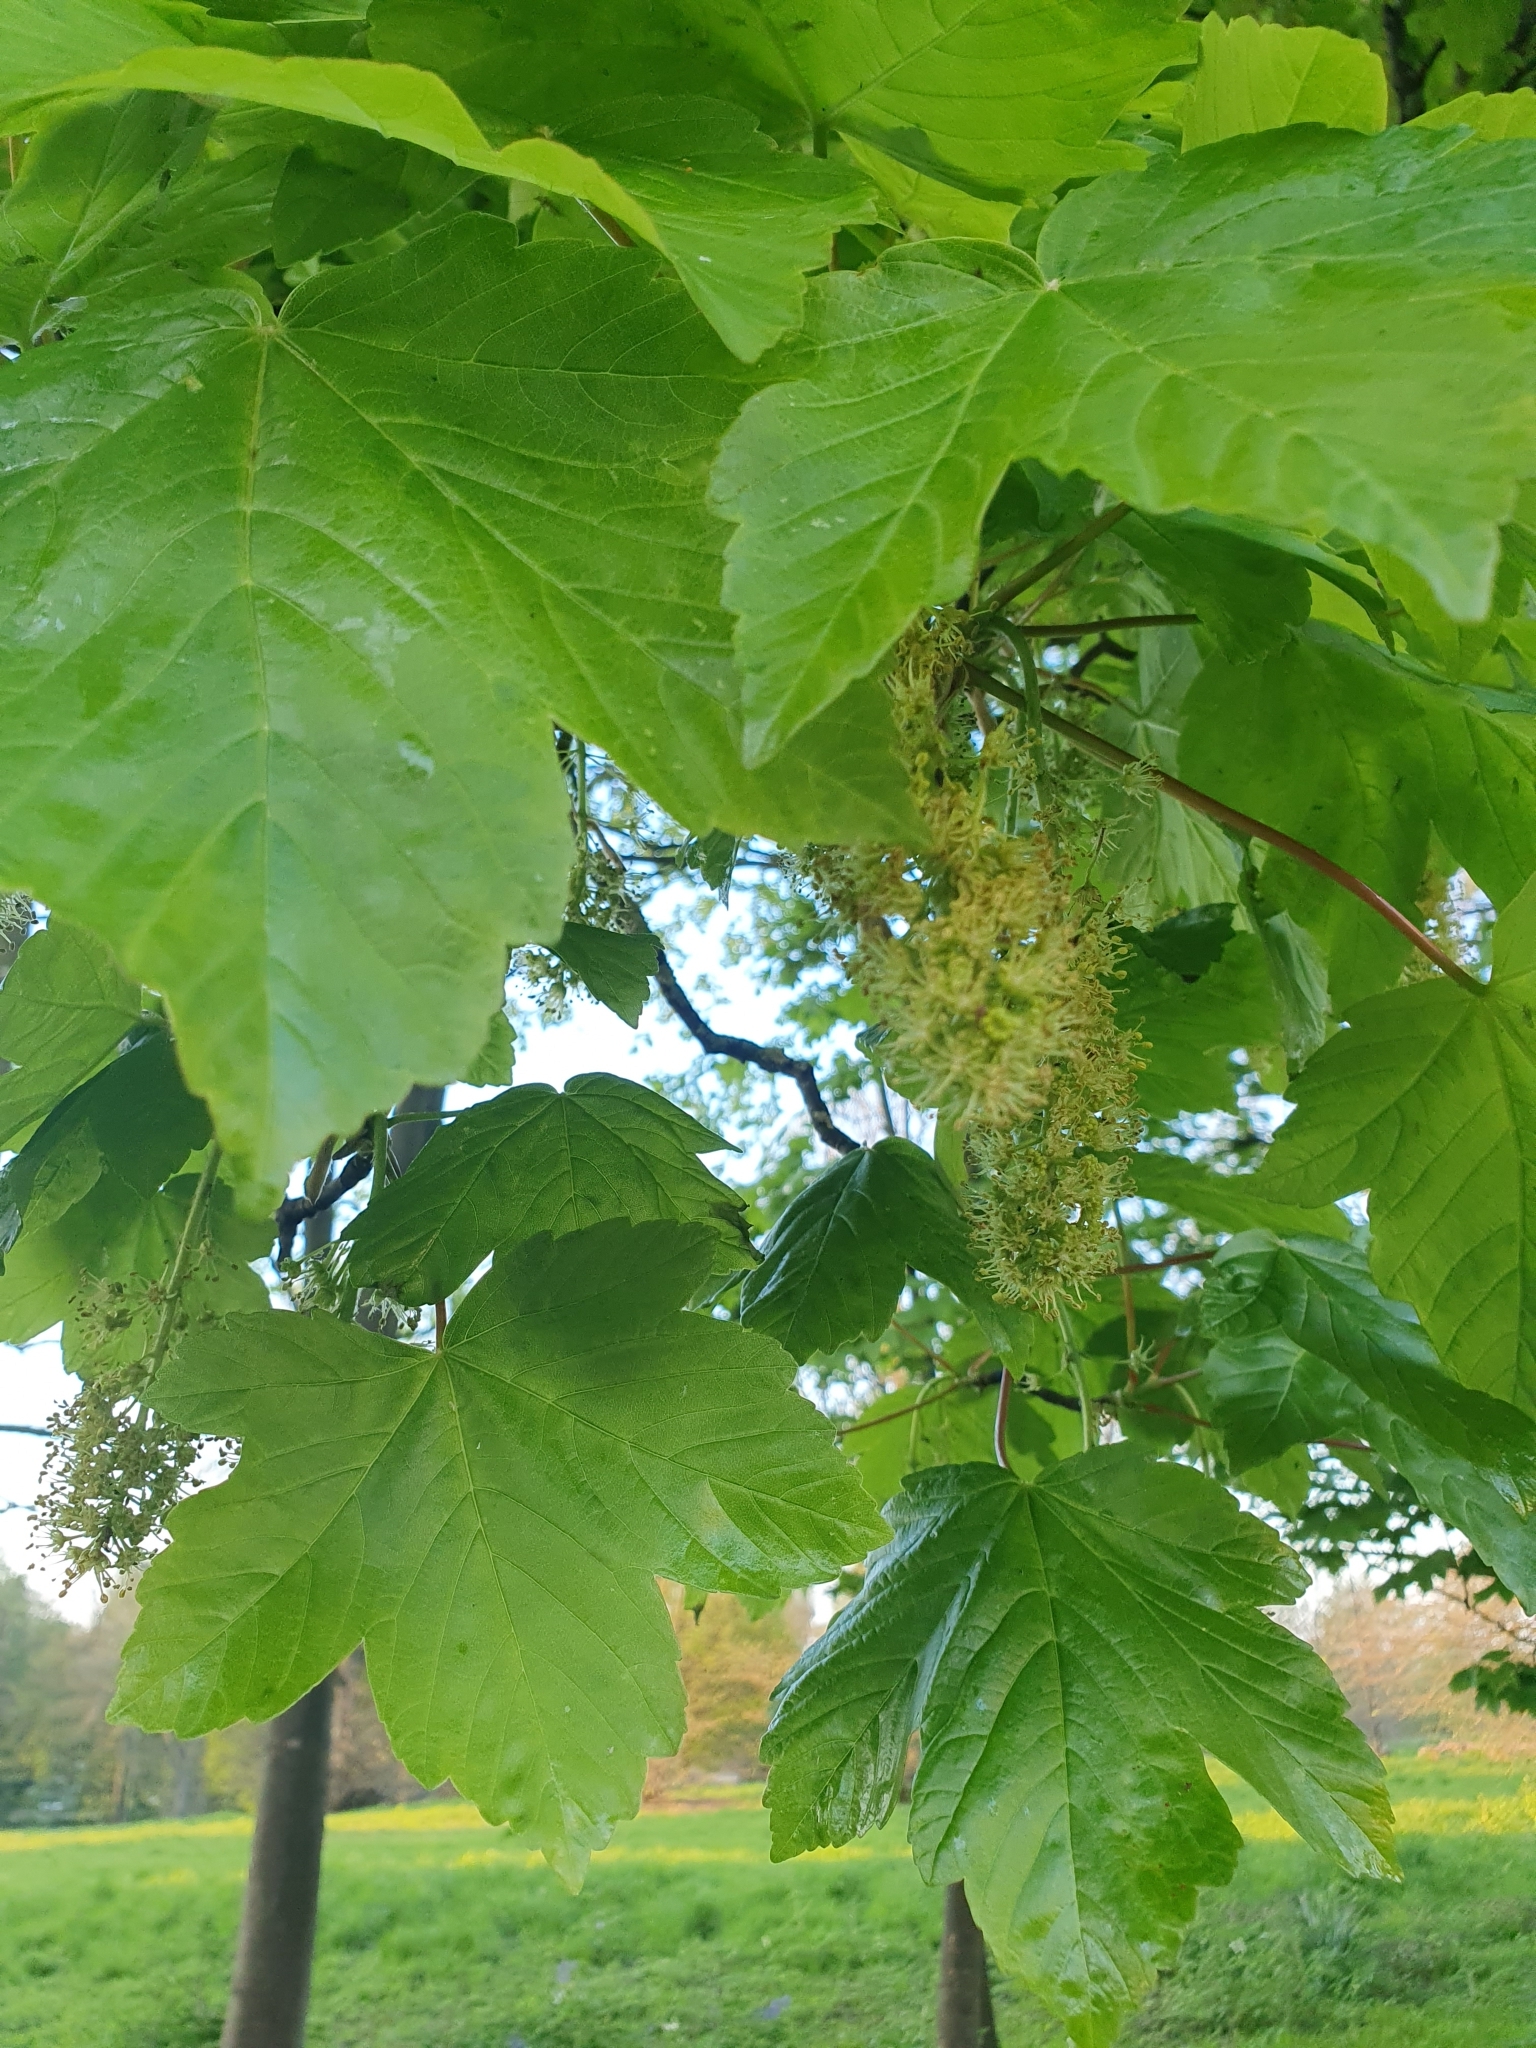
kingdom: Plantae
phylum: Tracheophyta
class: Magnoliopsida
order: Sapindales
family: Sapindaceae
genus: Acer
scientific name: Acer pseudoplatanus
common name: Sycamore
